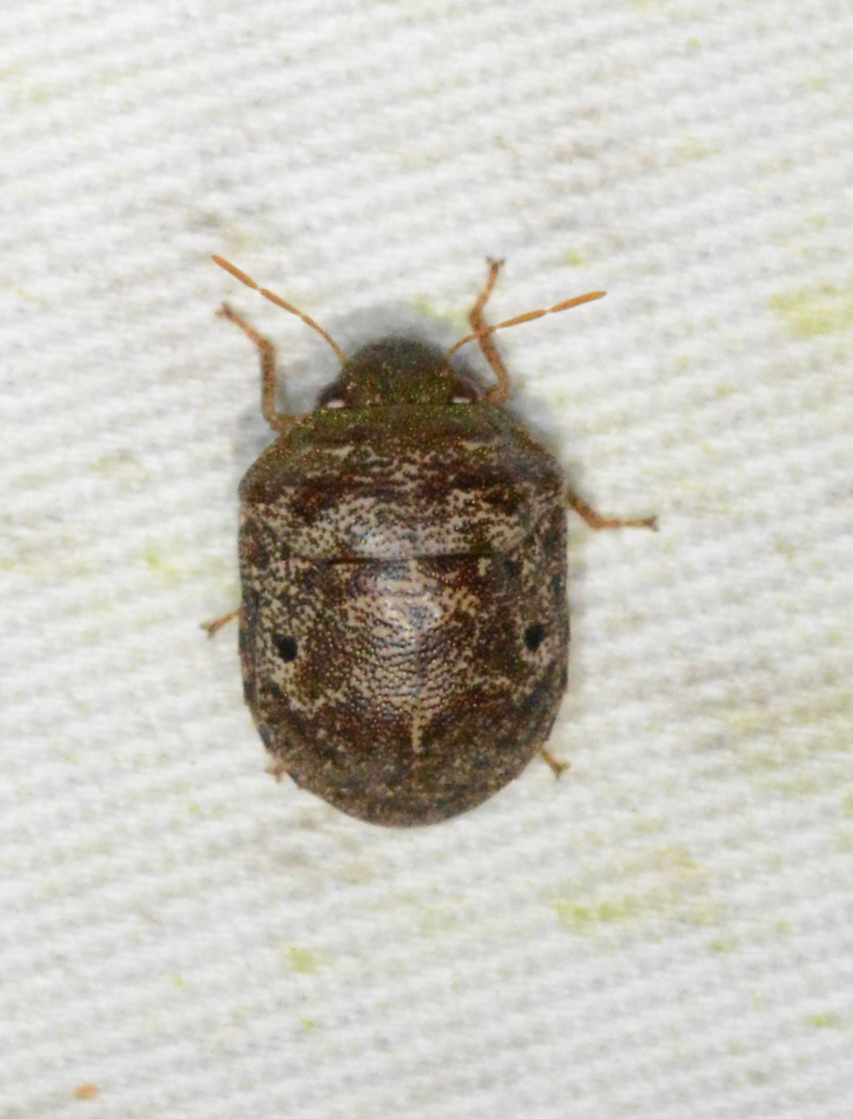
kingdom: Animalia
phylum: Arthropoda
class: Insecta
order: Hemiptera
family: Scutelleridae
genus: Diolcus
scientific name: Diolcus chrysorrhoeus
